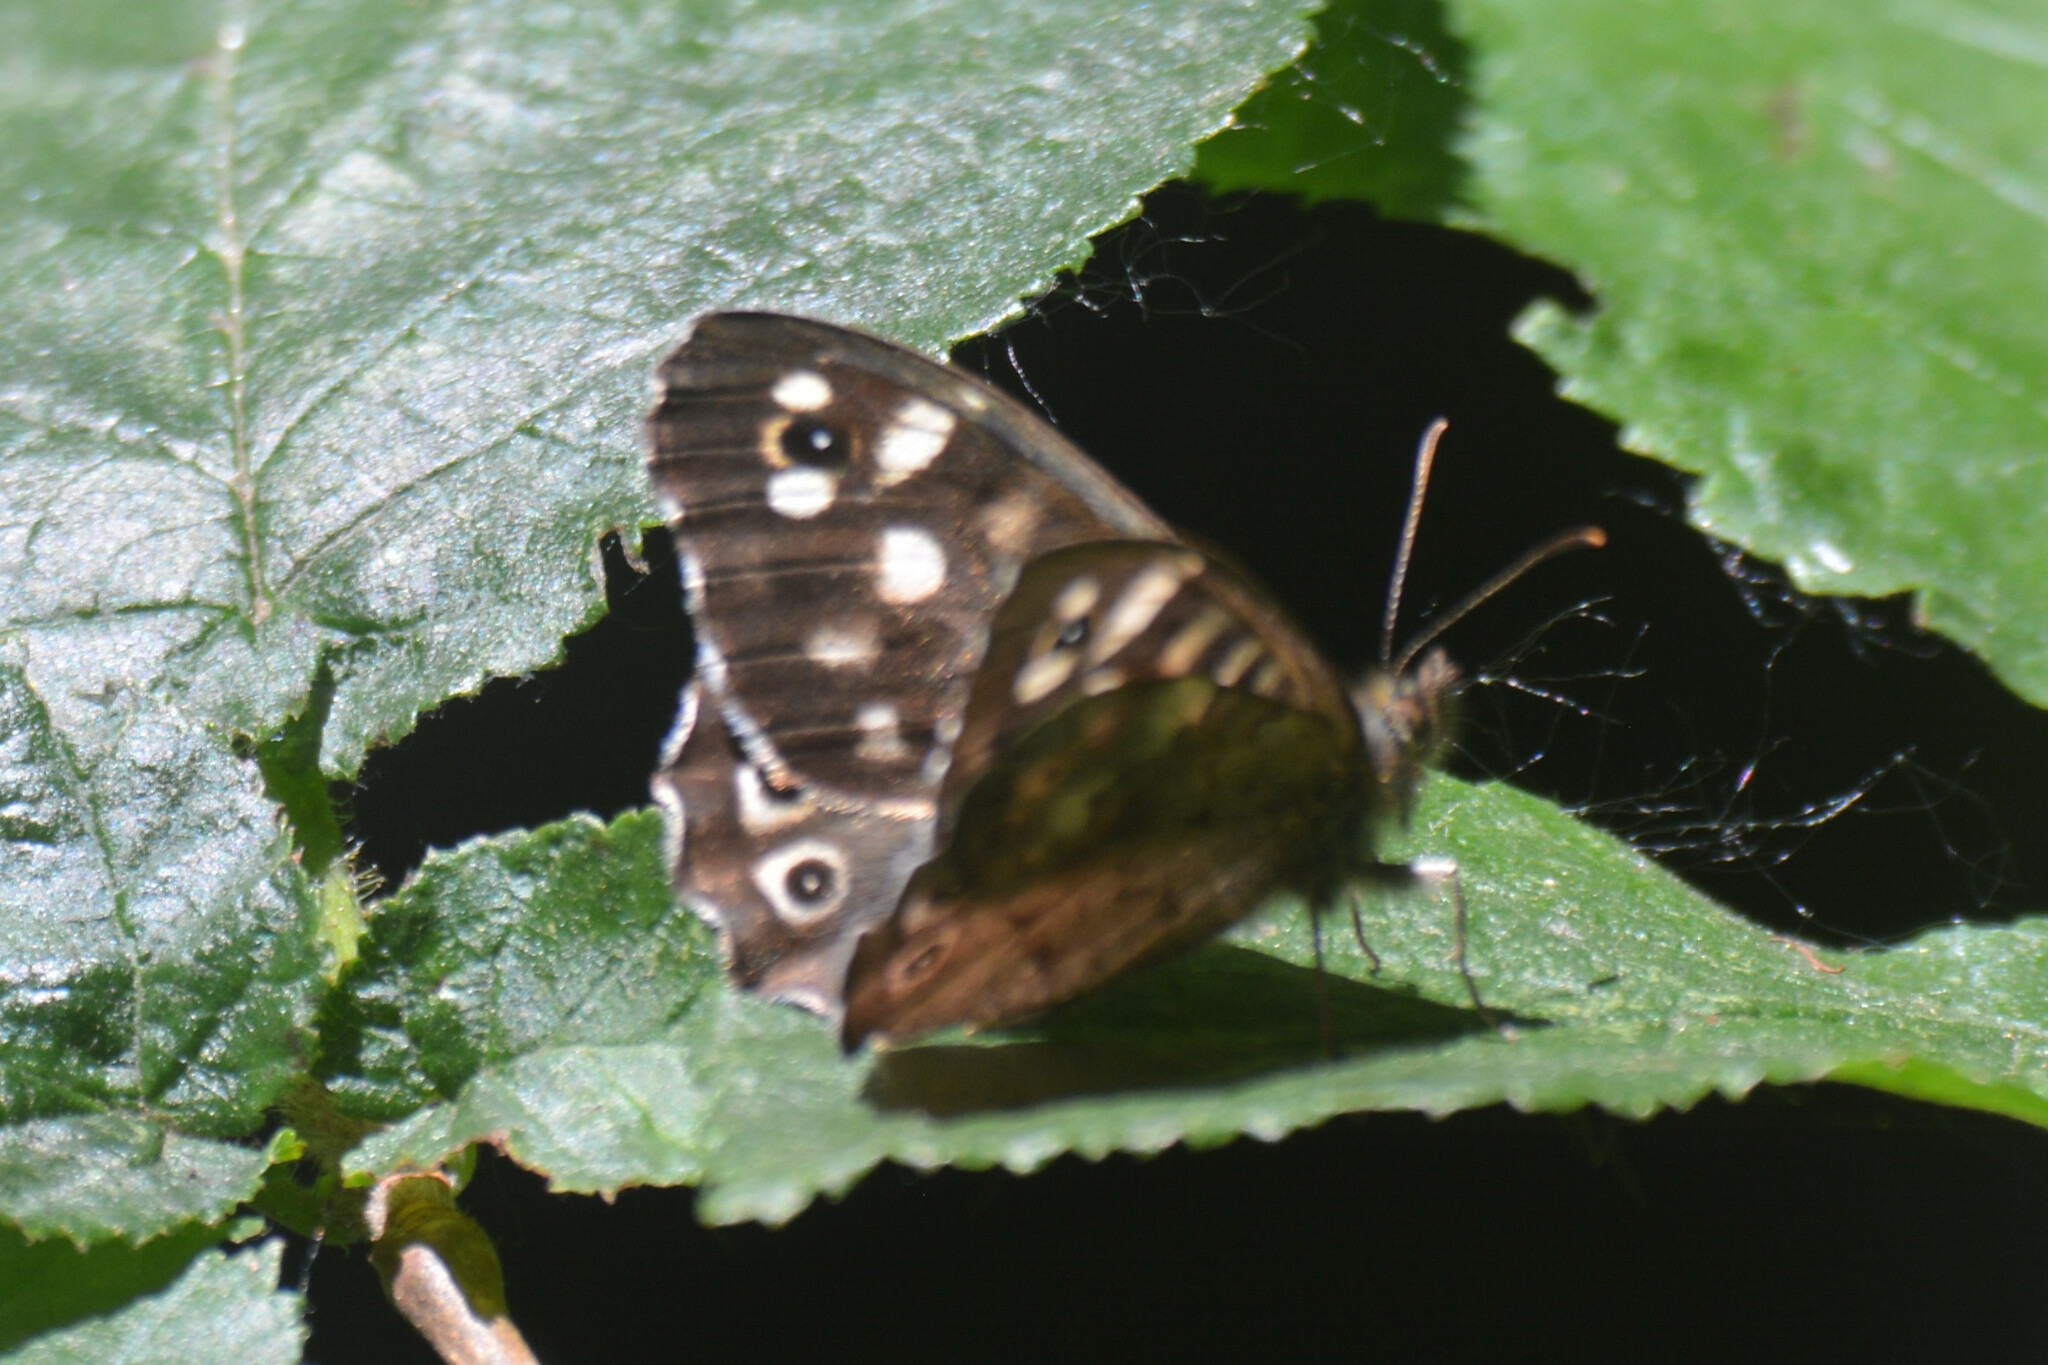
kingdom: Animalia
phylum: Arthropoda
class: Insecta
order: Lepidoptera
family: Nymphalidae
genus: Pararge
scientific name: Pararge aegeria
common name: Speckled wood
